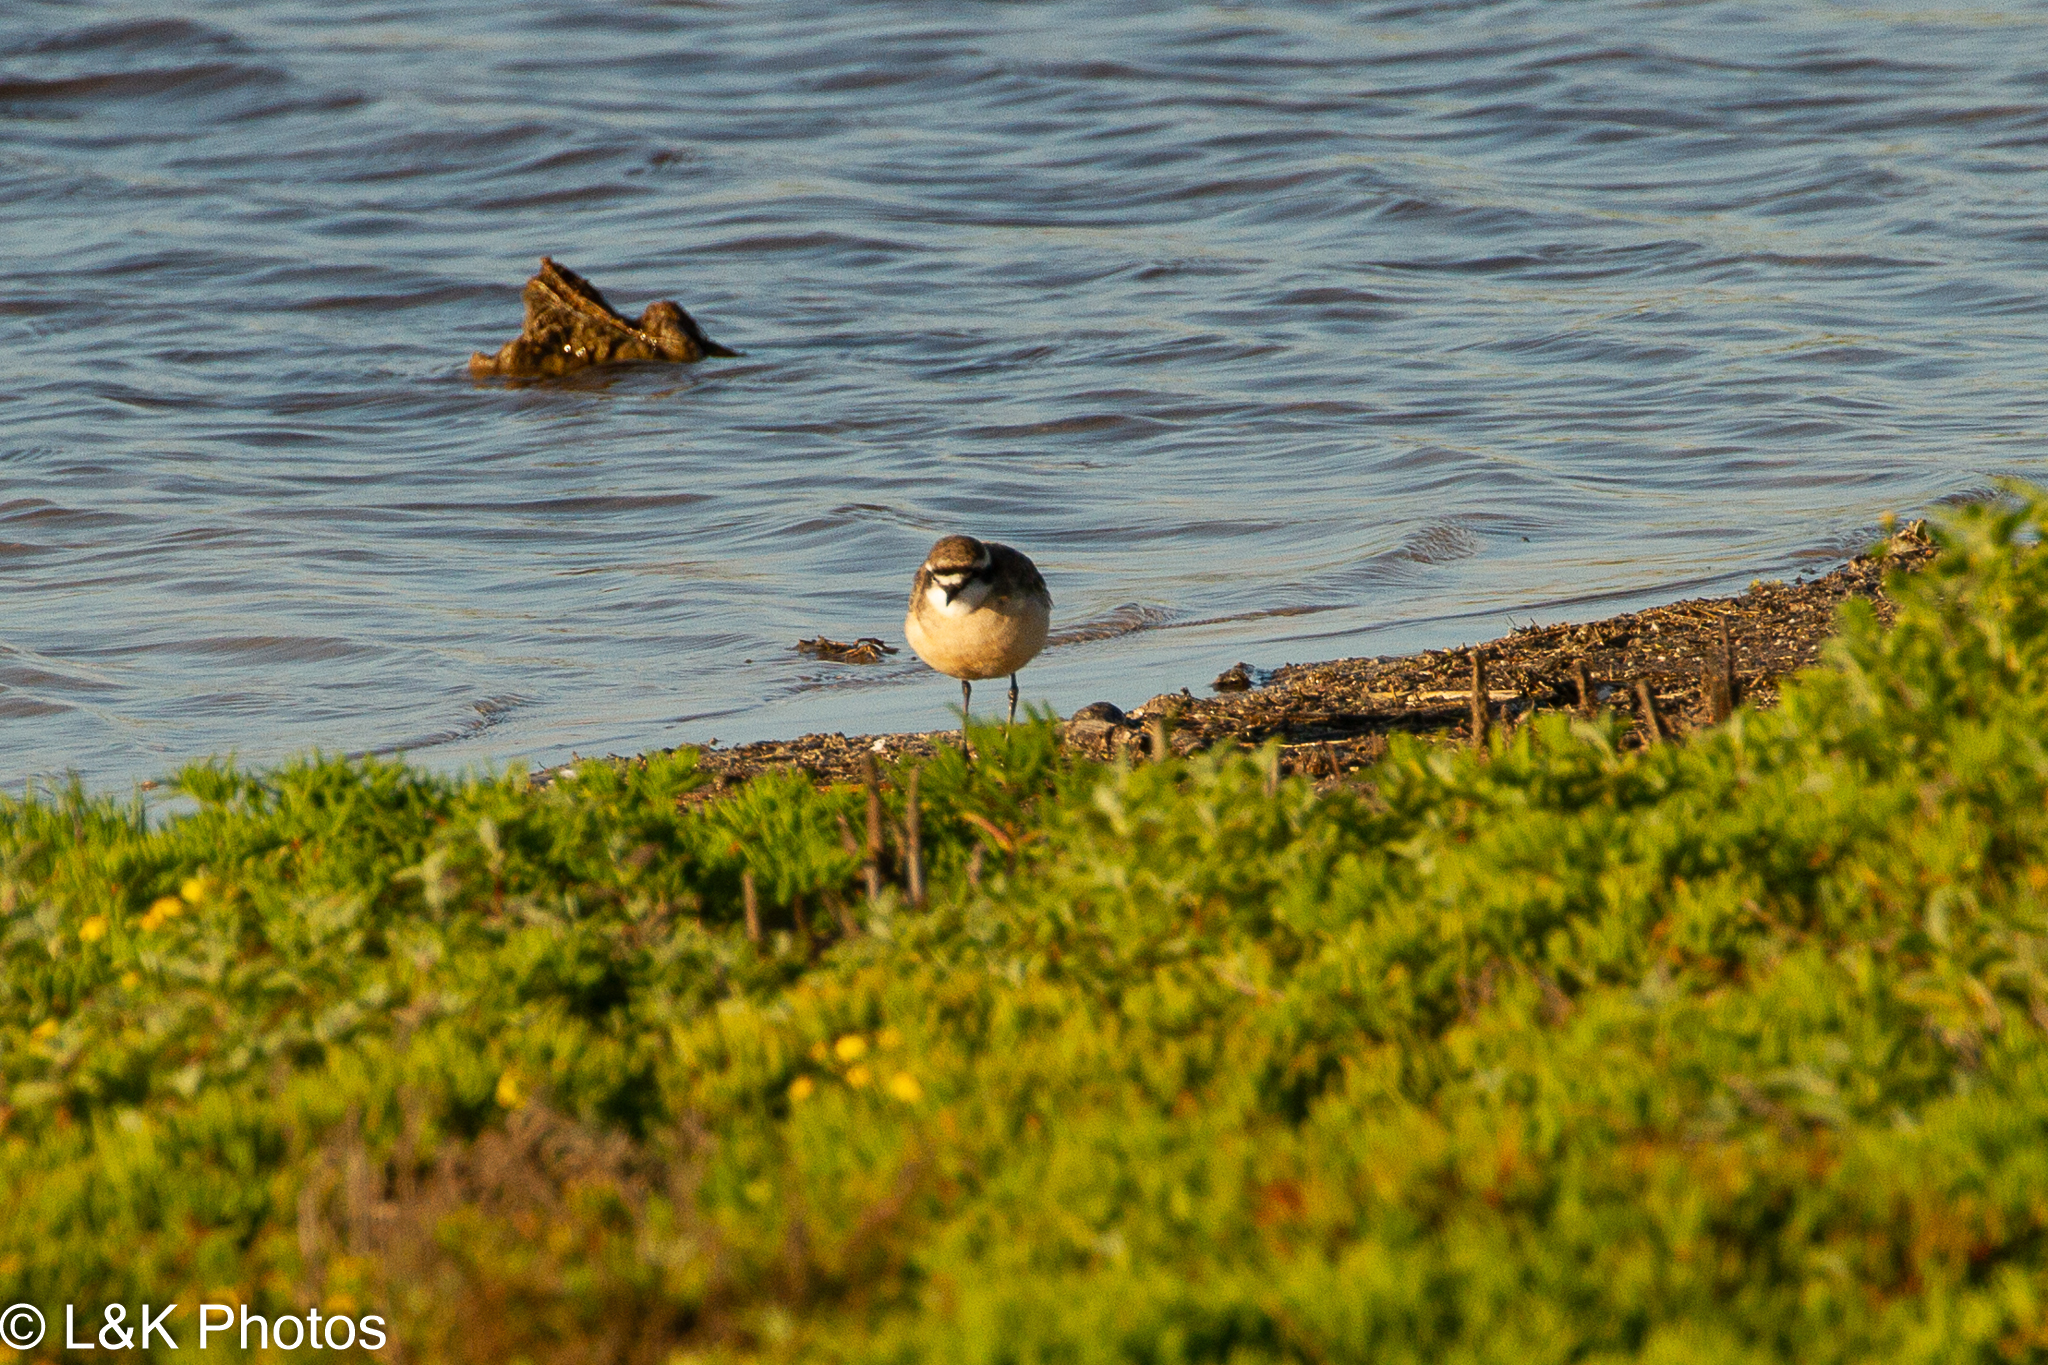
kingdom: Animalia
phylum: Chordata
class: Aves
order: Charadriiformes
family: Charadriidae
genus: Anarhynchus
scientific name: Anarhynchus
